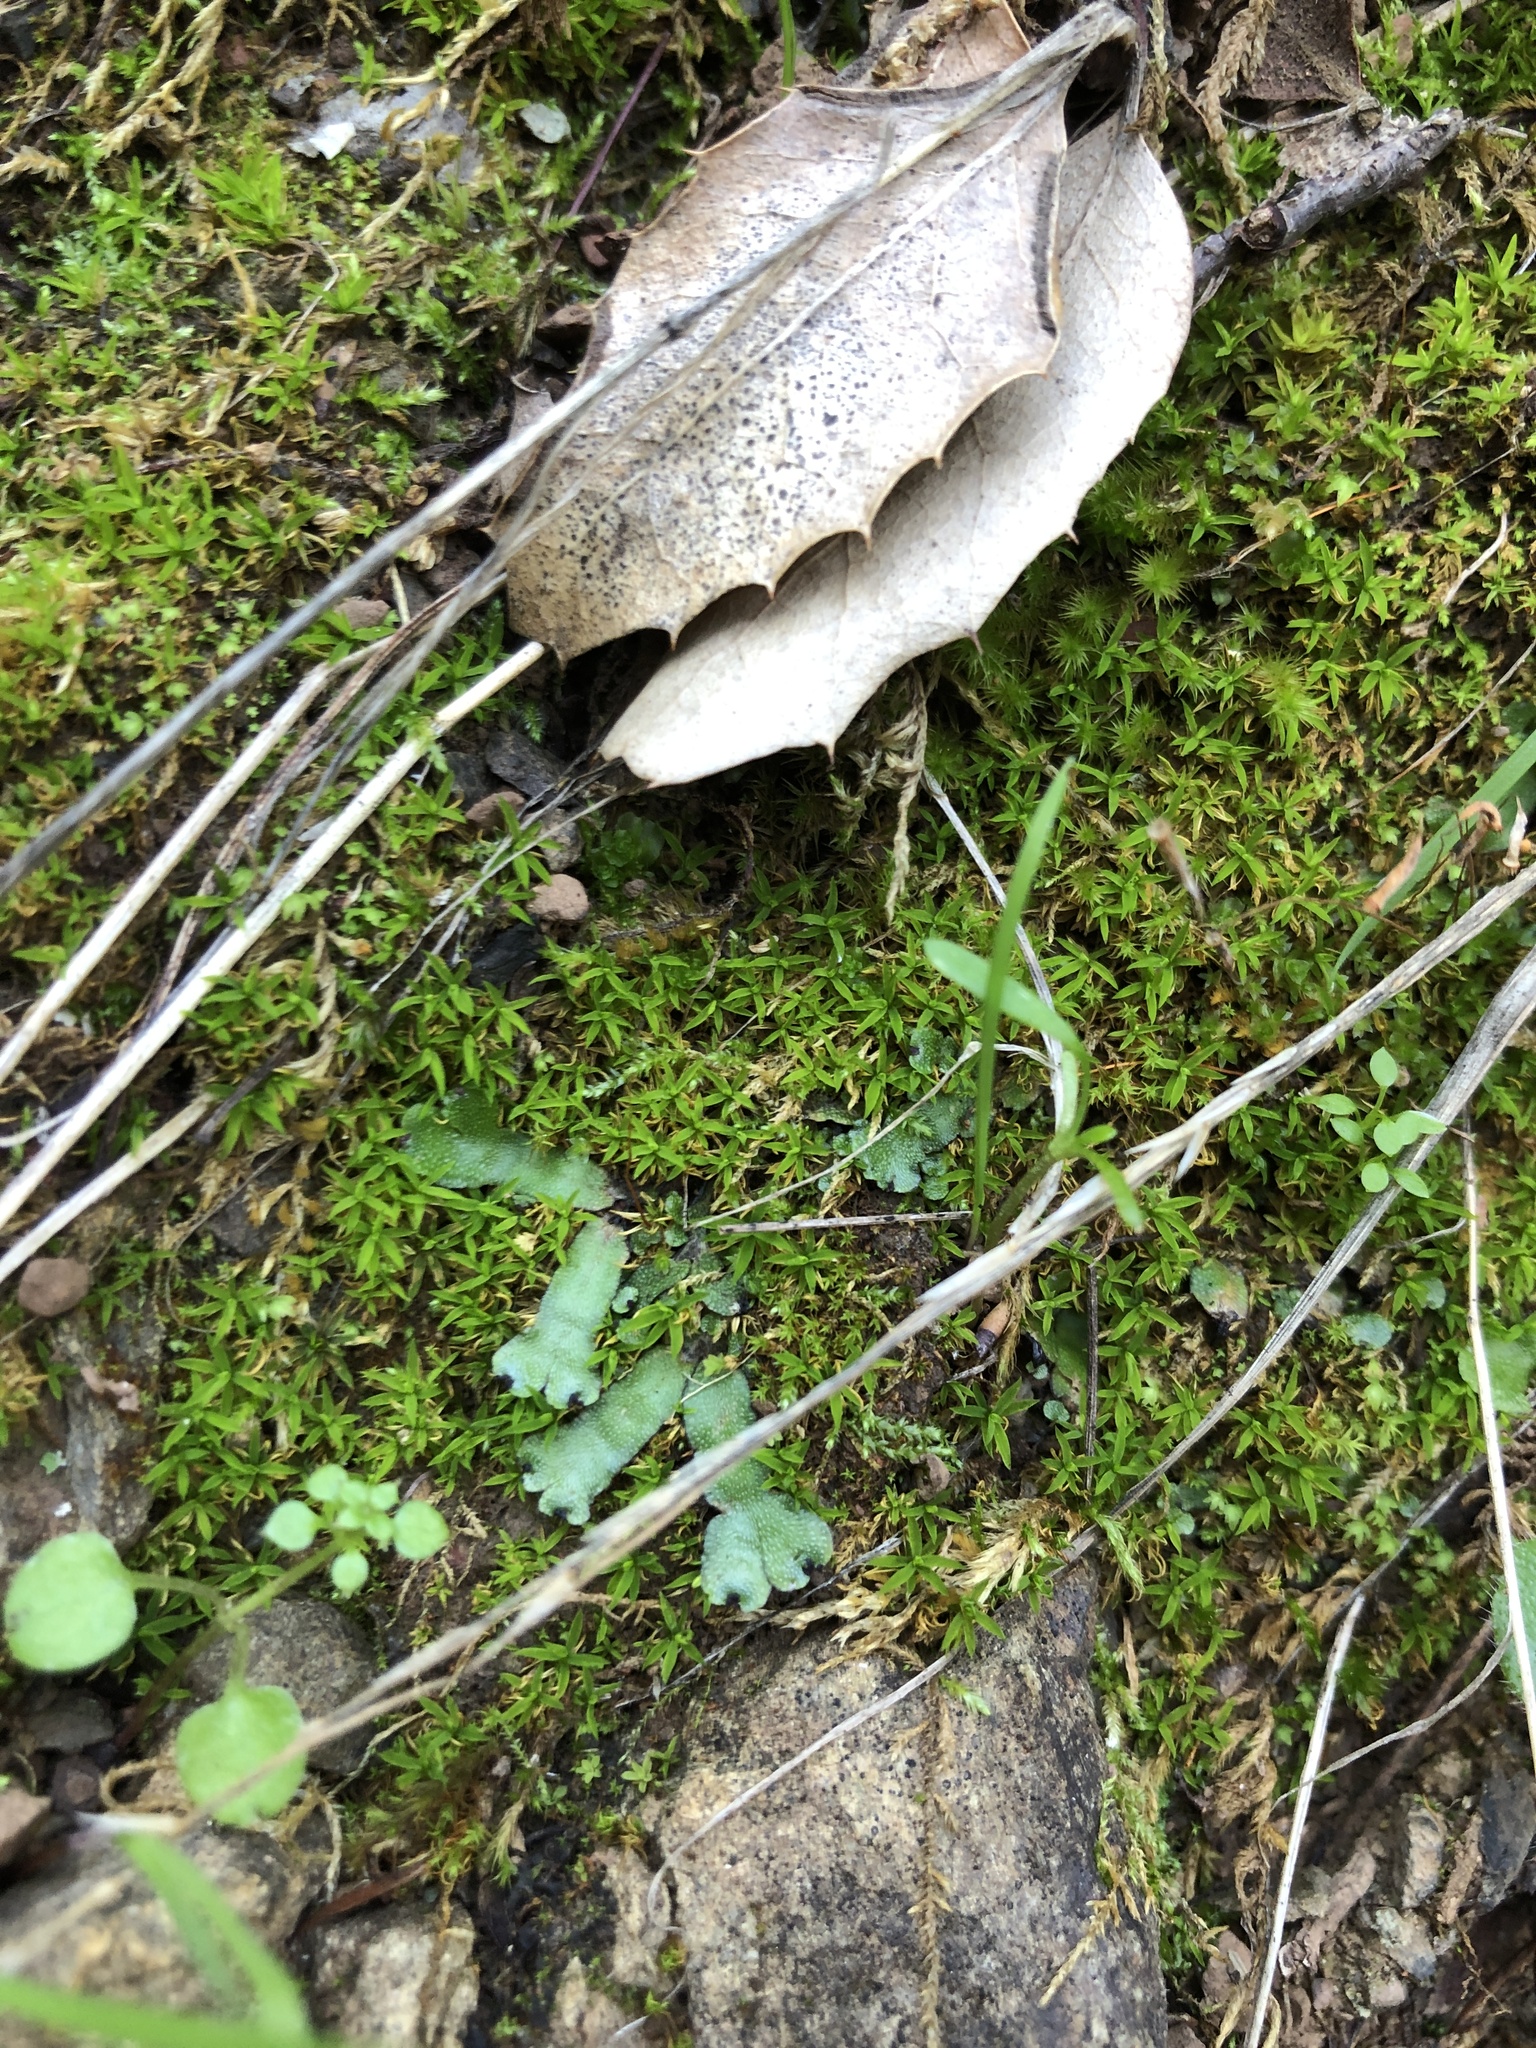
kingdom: Plantae
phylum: Marchantiophyta
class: Marchantiopsida
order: Marchantiales
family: Targioniaceae
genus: Targionia
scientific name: Targionia hypophylla
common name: Orobus-seed liverwort
